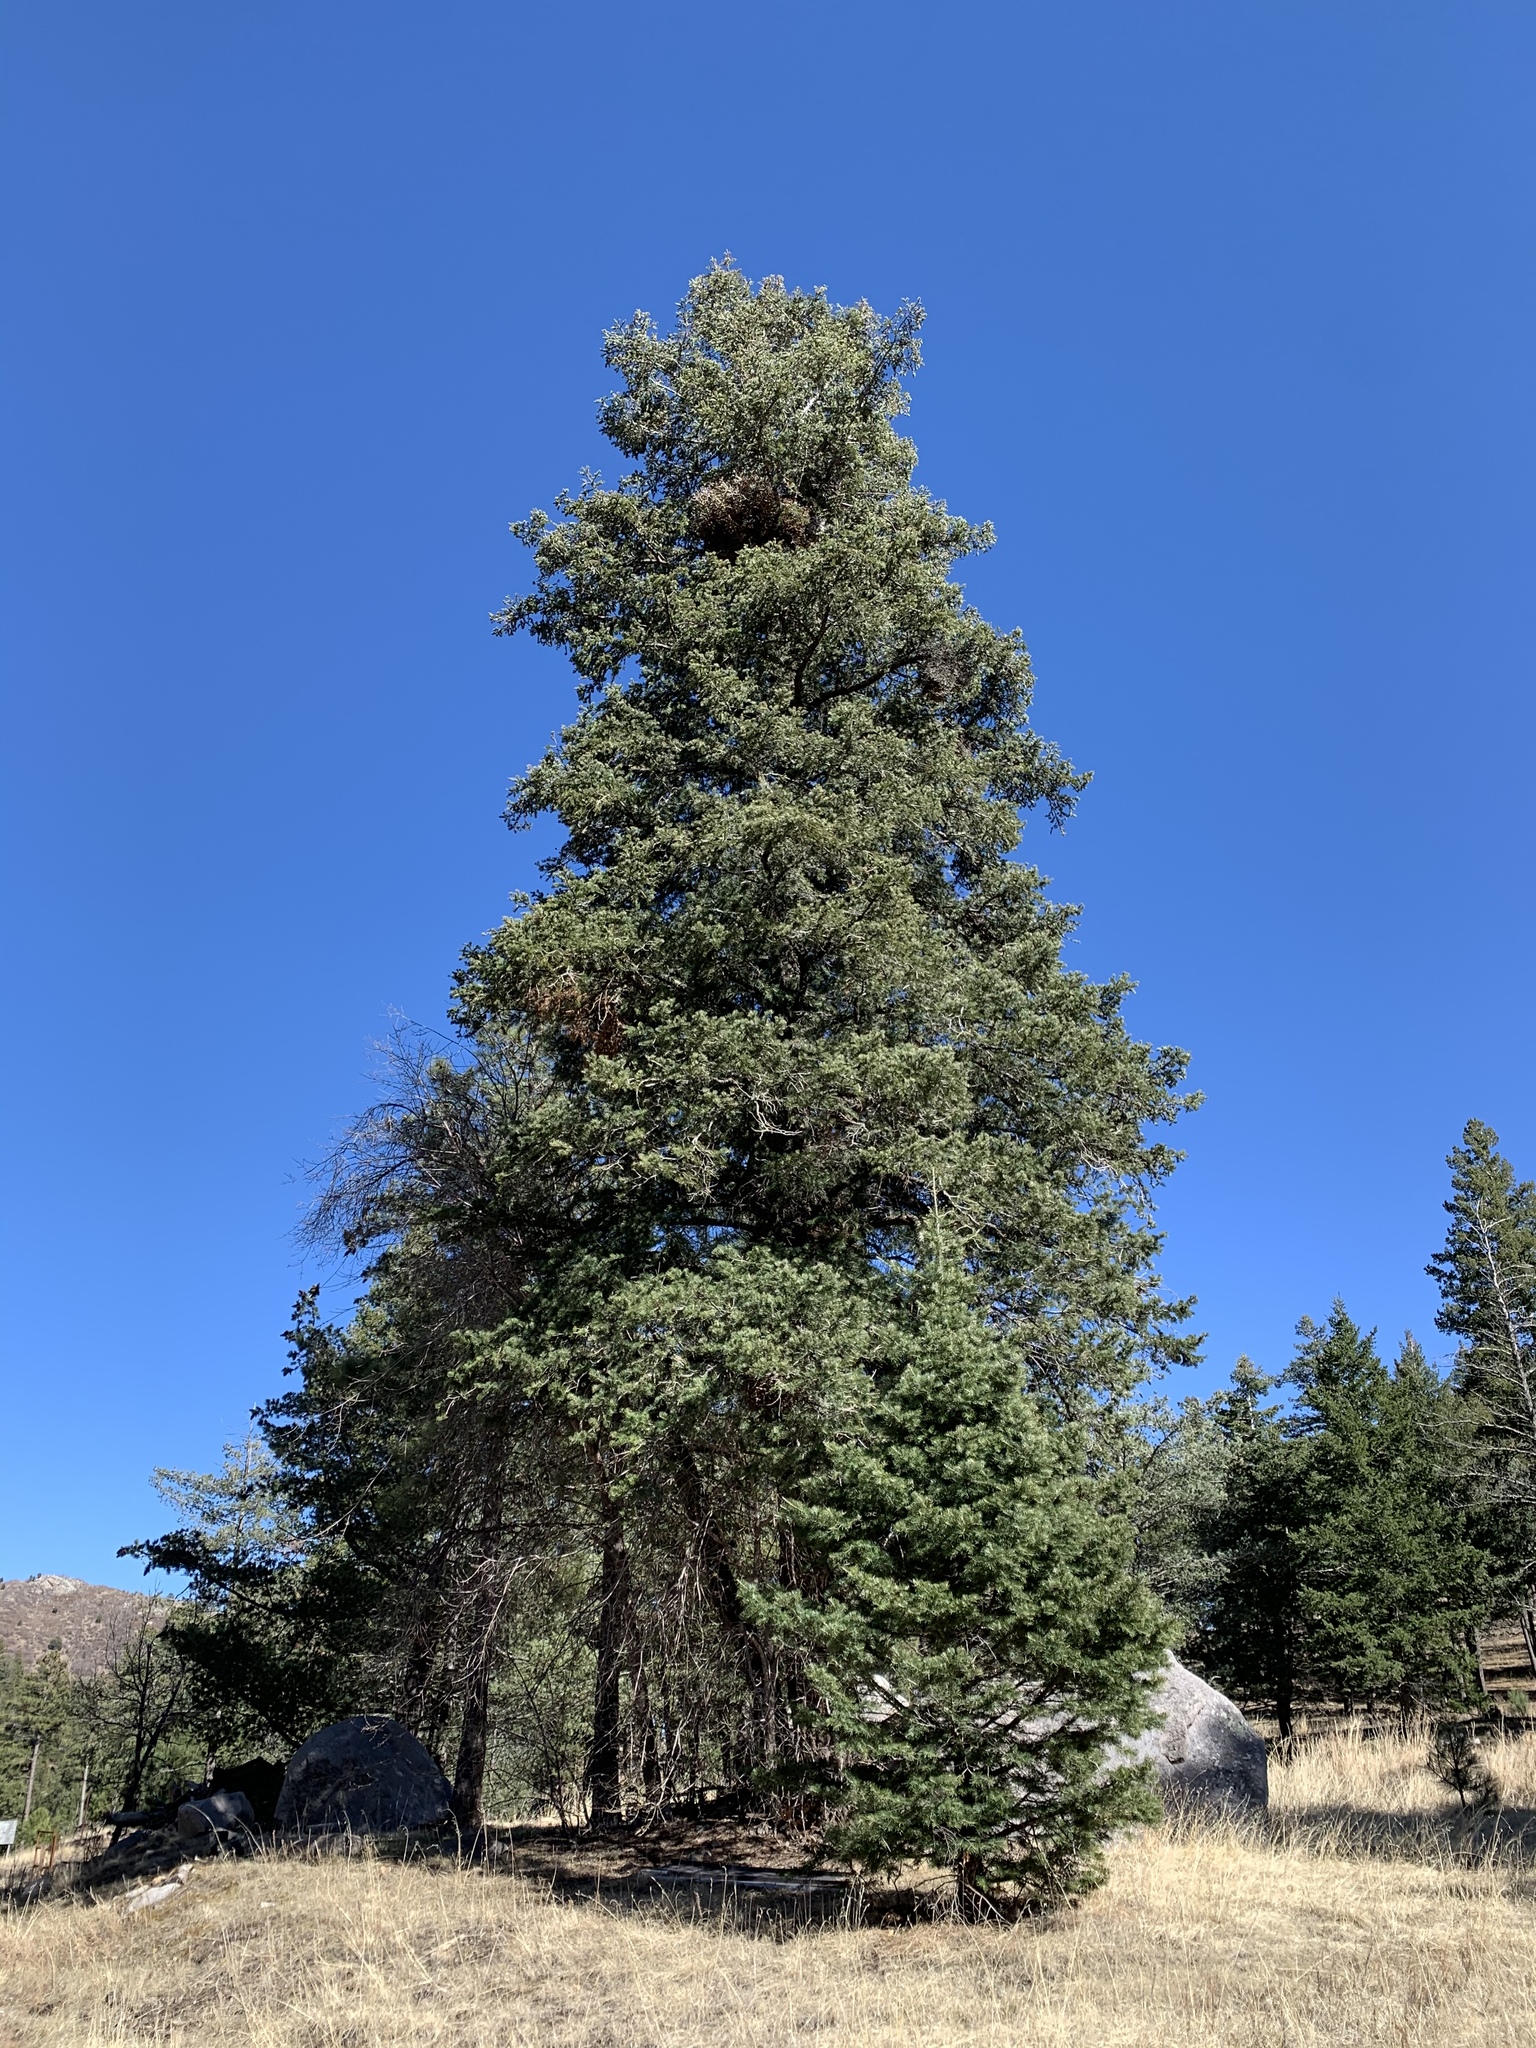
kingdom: Plantae
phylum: Tracheophyta
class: Pinopsida
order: Pinales
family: Pinaceae
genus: Abies
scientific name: Abies concolor
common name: Colorado fir
